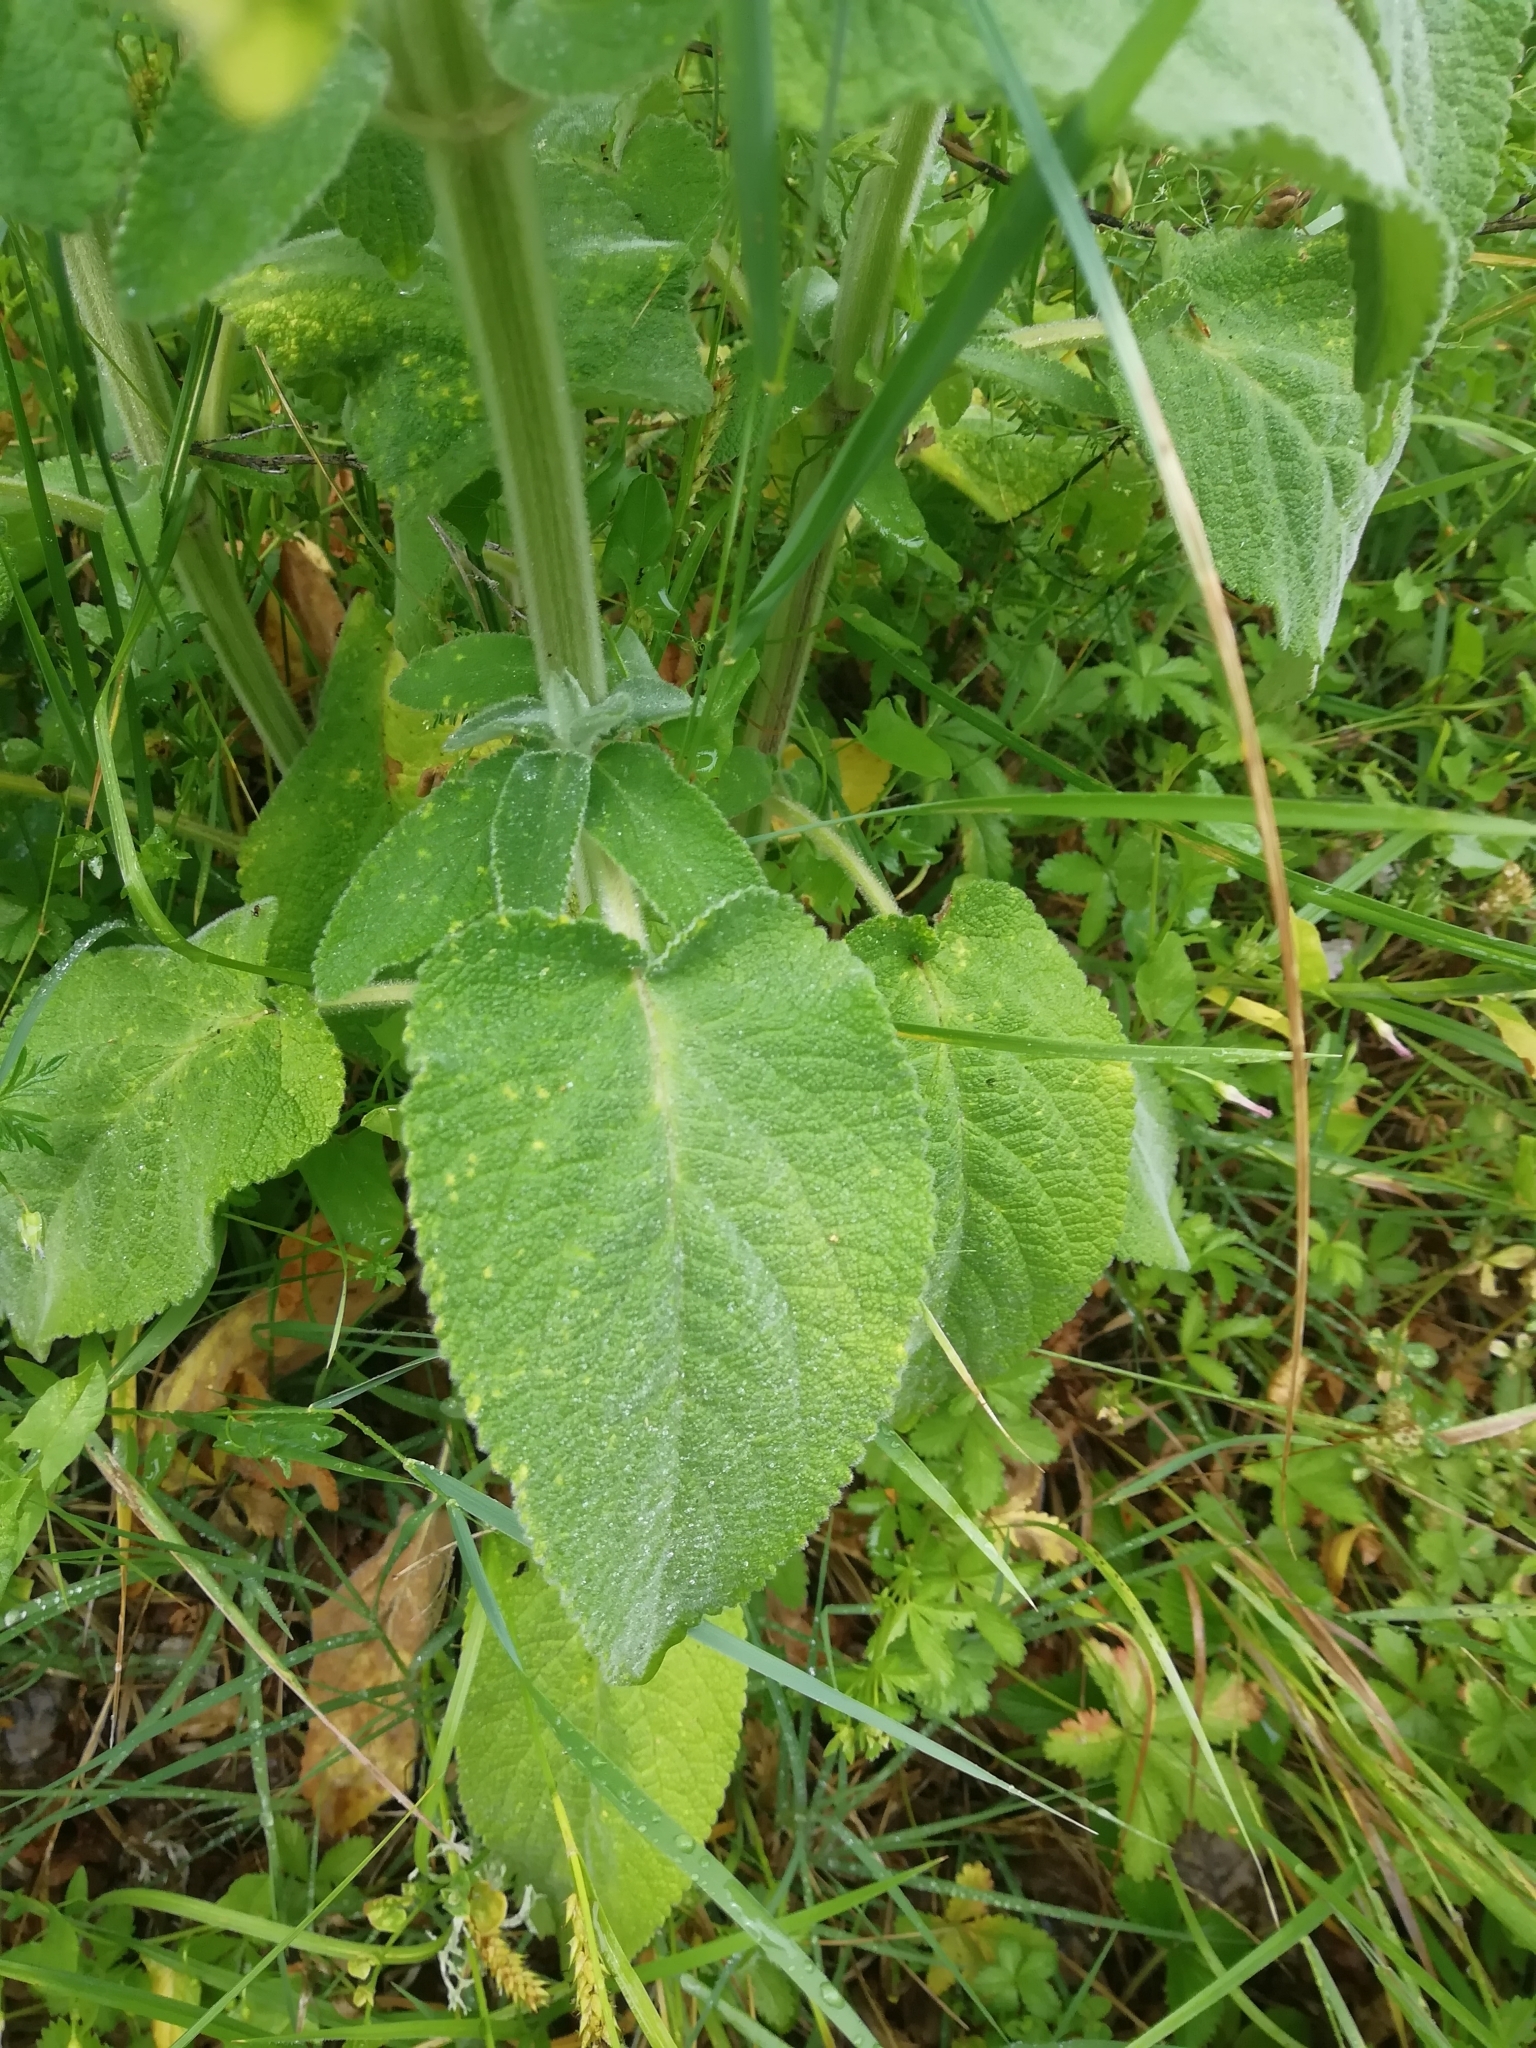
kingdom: Plantae
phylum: Tracheophyta
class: Magnoliopsida
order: Lamiales
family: Lamiaceae
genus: Stachys
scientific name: Stachys germanica
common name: Downy woundwort
